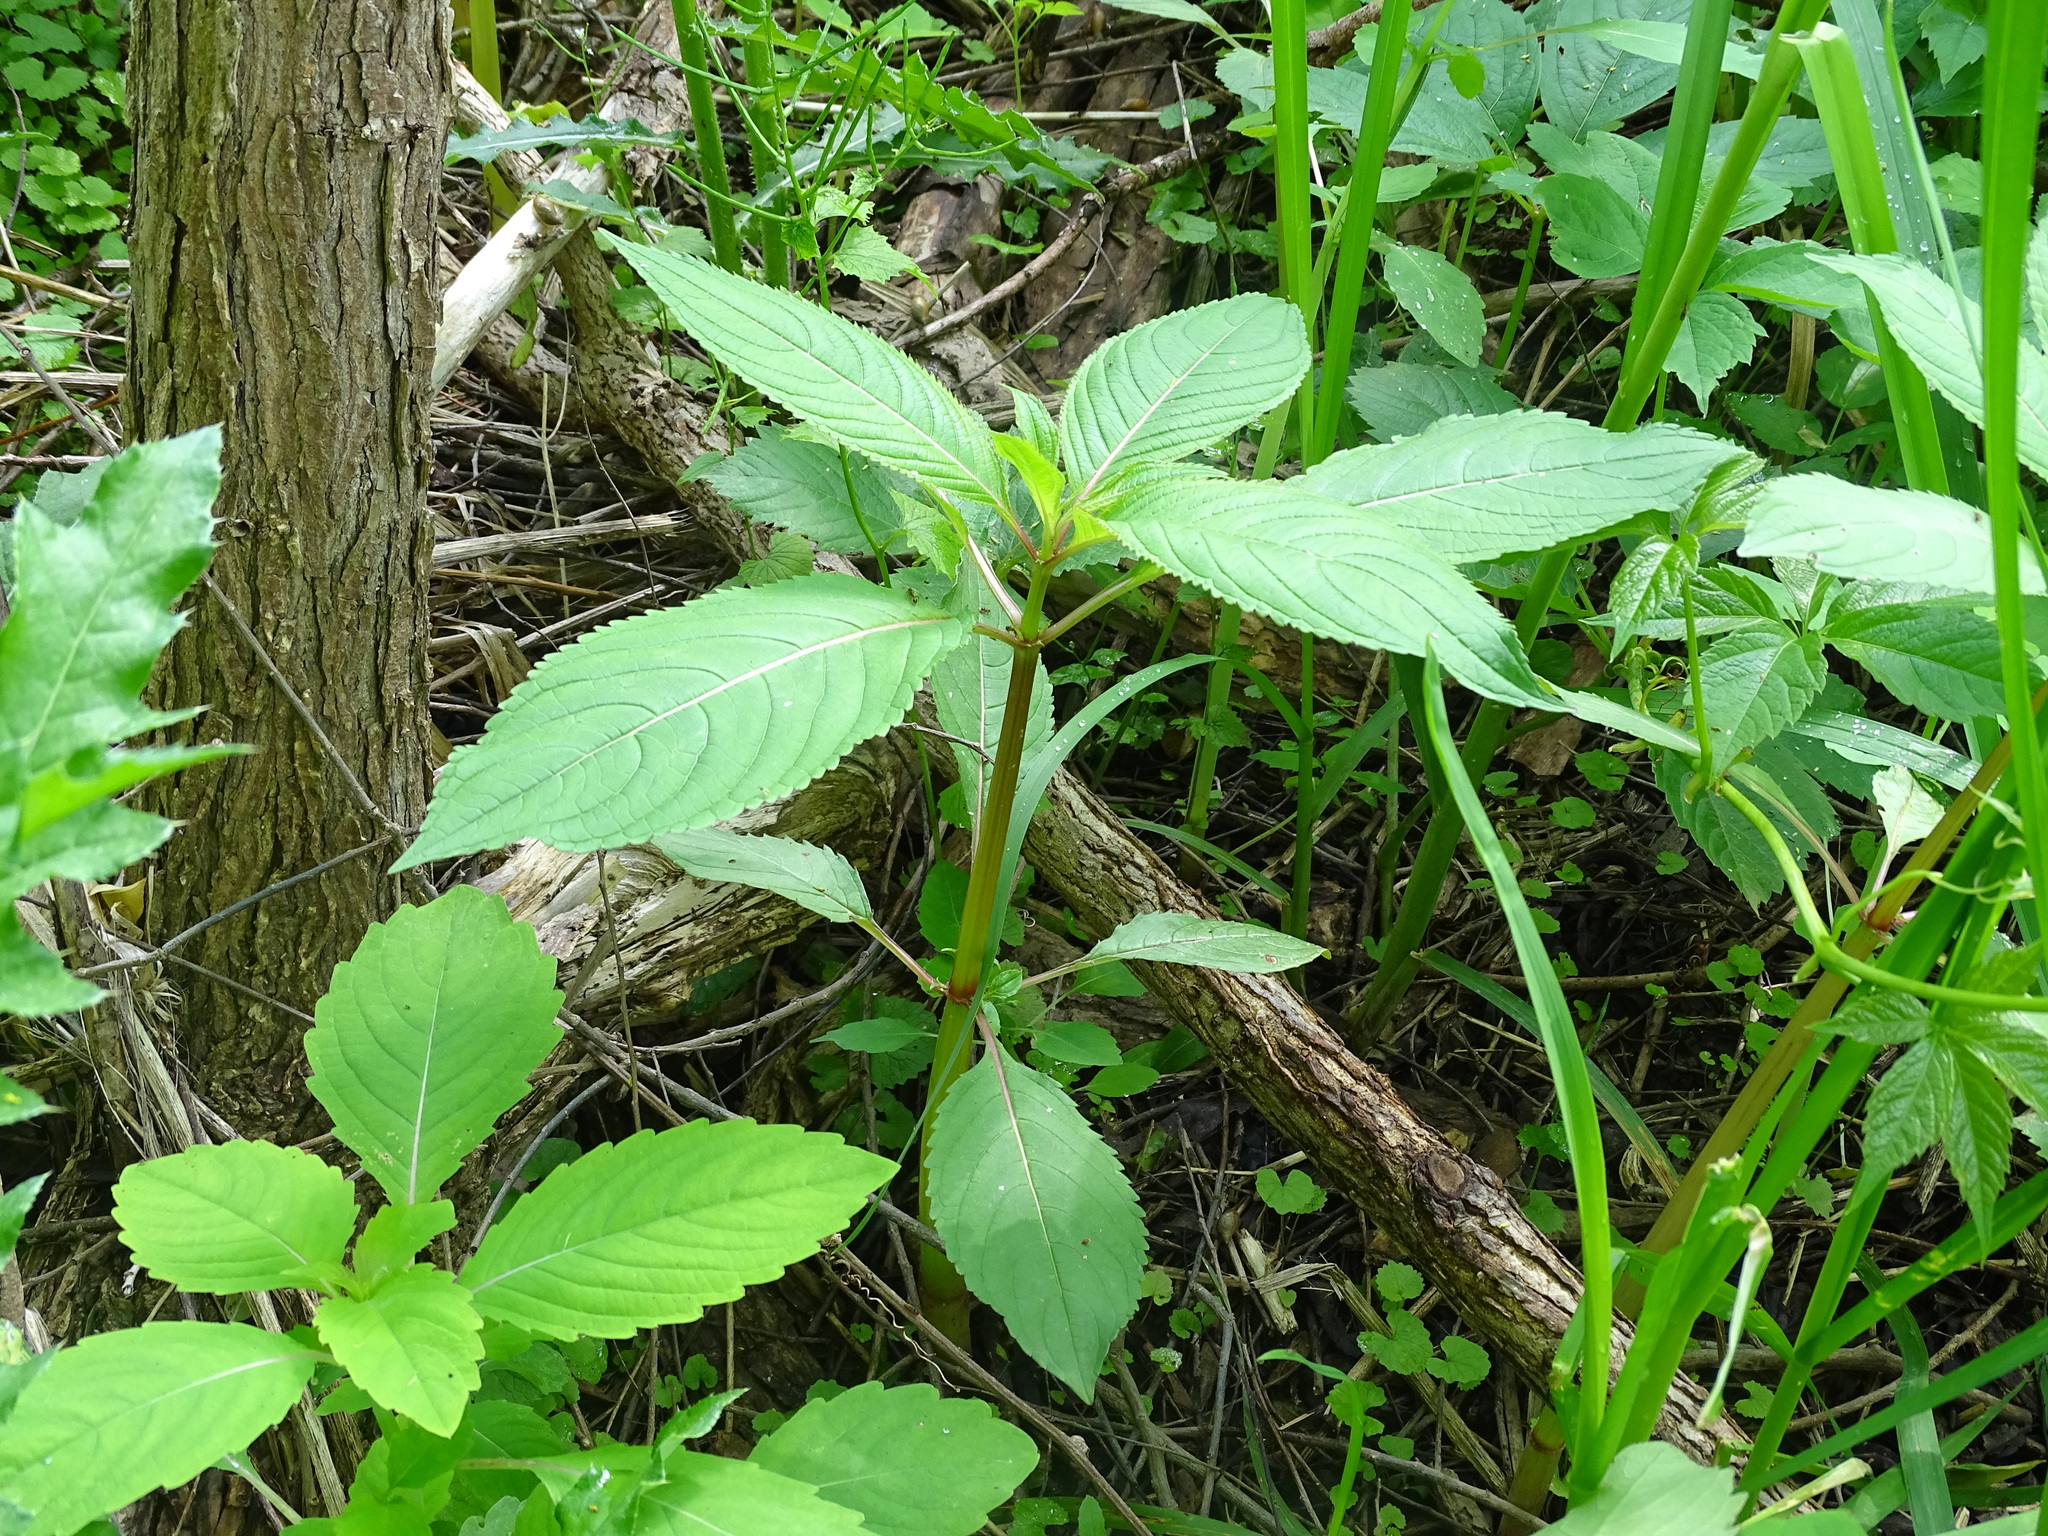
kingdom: Plantae
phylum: Tracheophyta
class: Magnoliopsida
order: Ericales
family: Balsaminaceae
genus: Impatiens
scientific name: Impatiens glandulifera
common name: Himalayan balsam
